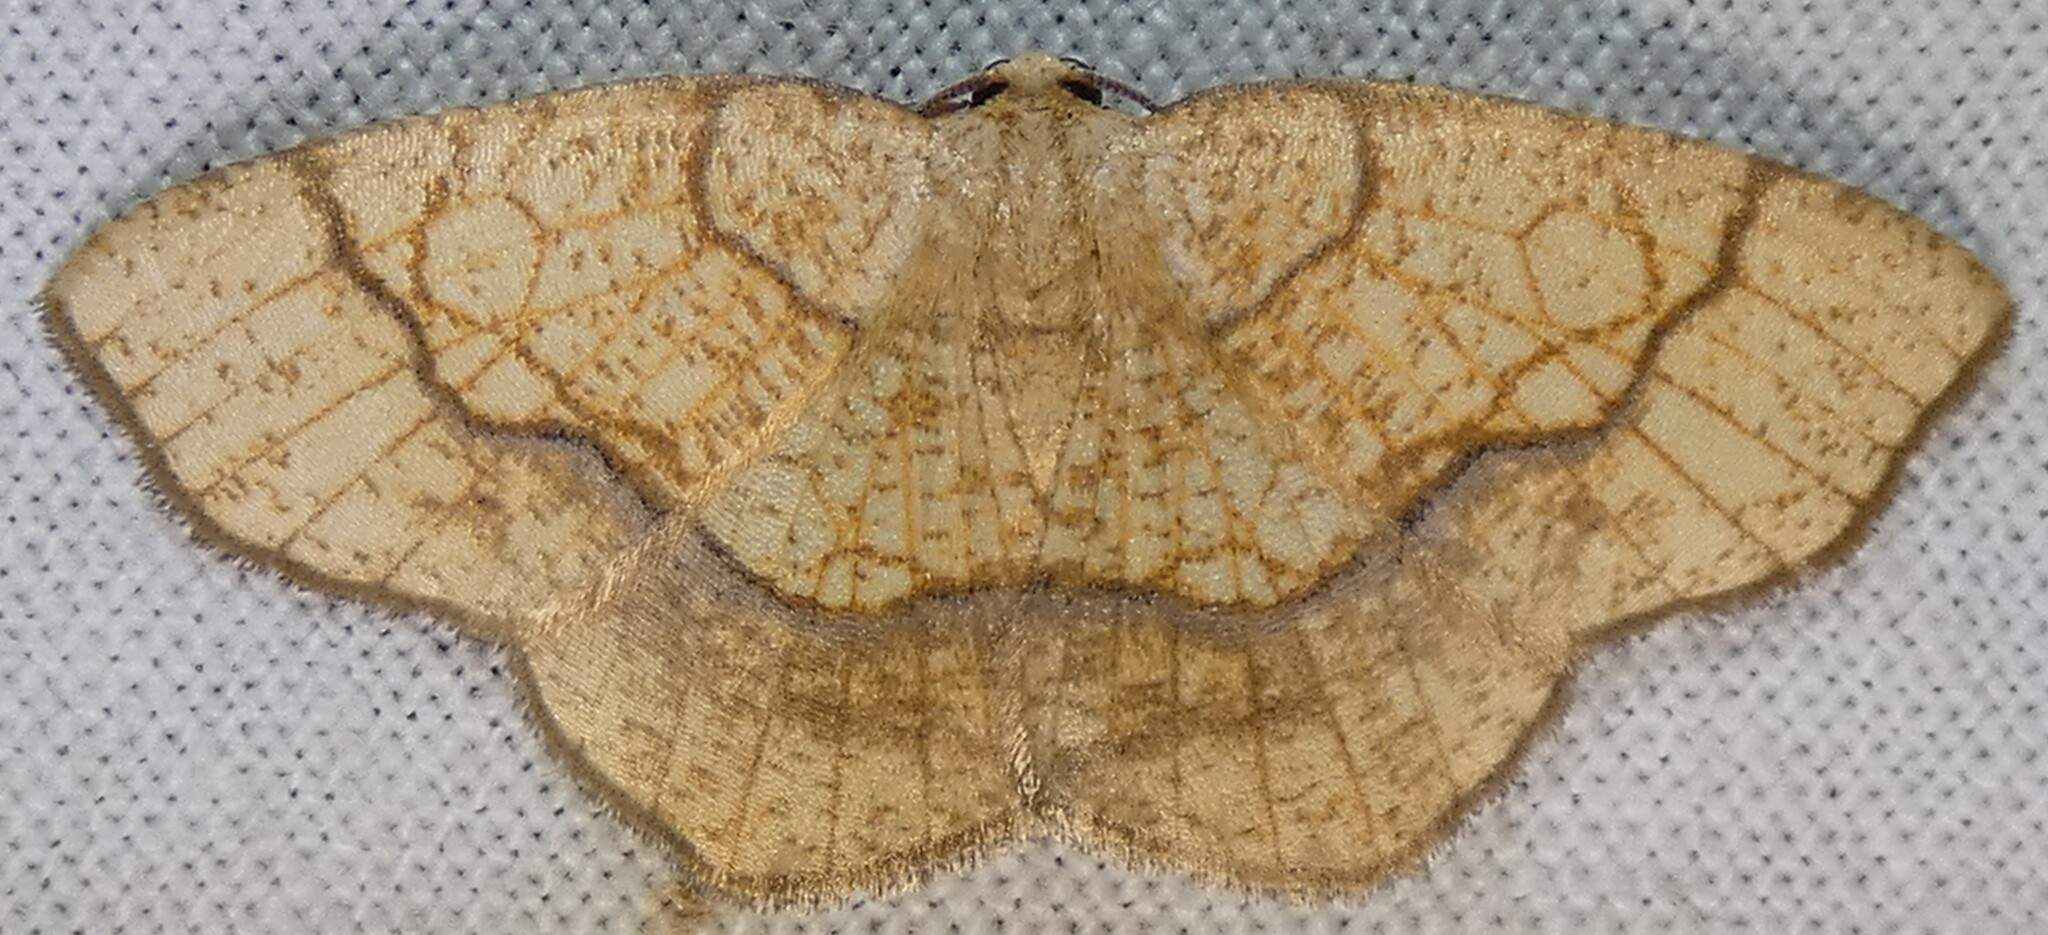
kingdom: Animalia
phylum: Arthropoda
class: Insecta
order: Lepidoptera
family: Geometridae
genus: Nematocampa
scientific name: Nematocampa resistaria
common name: Horned spanworm moth
